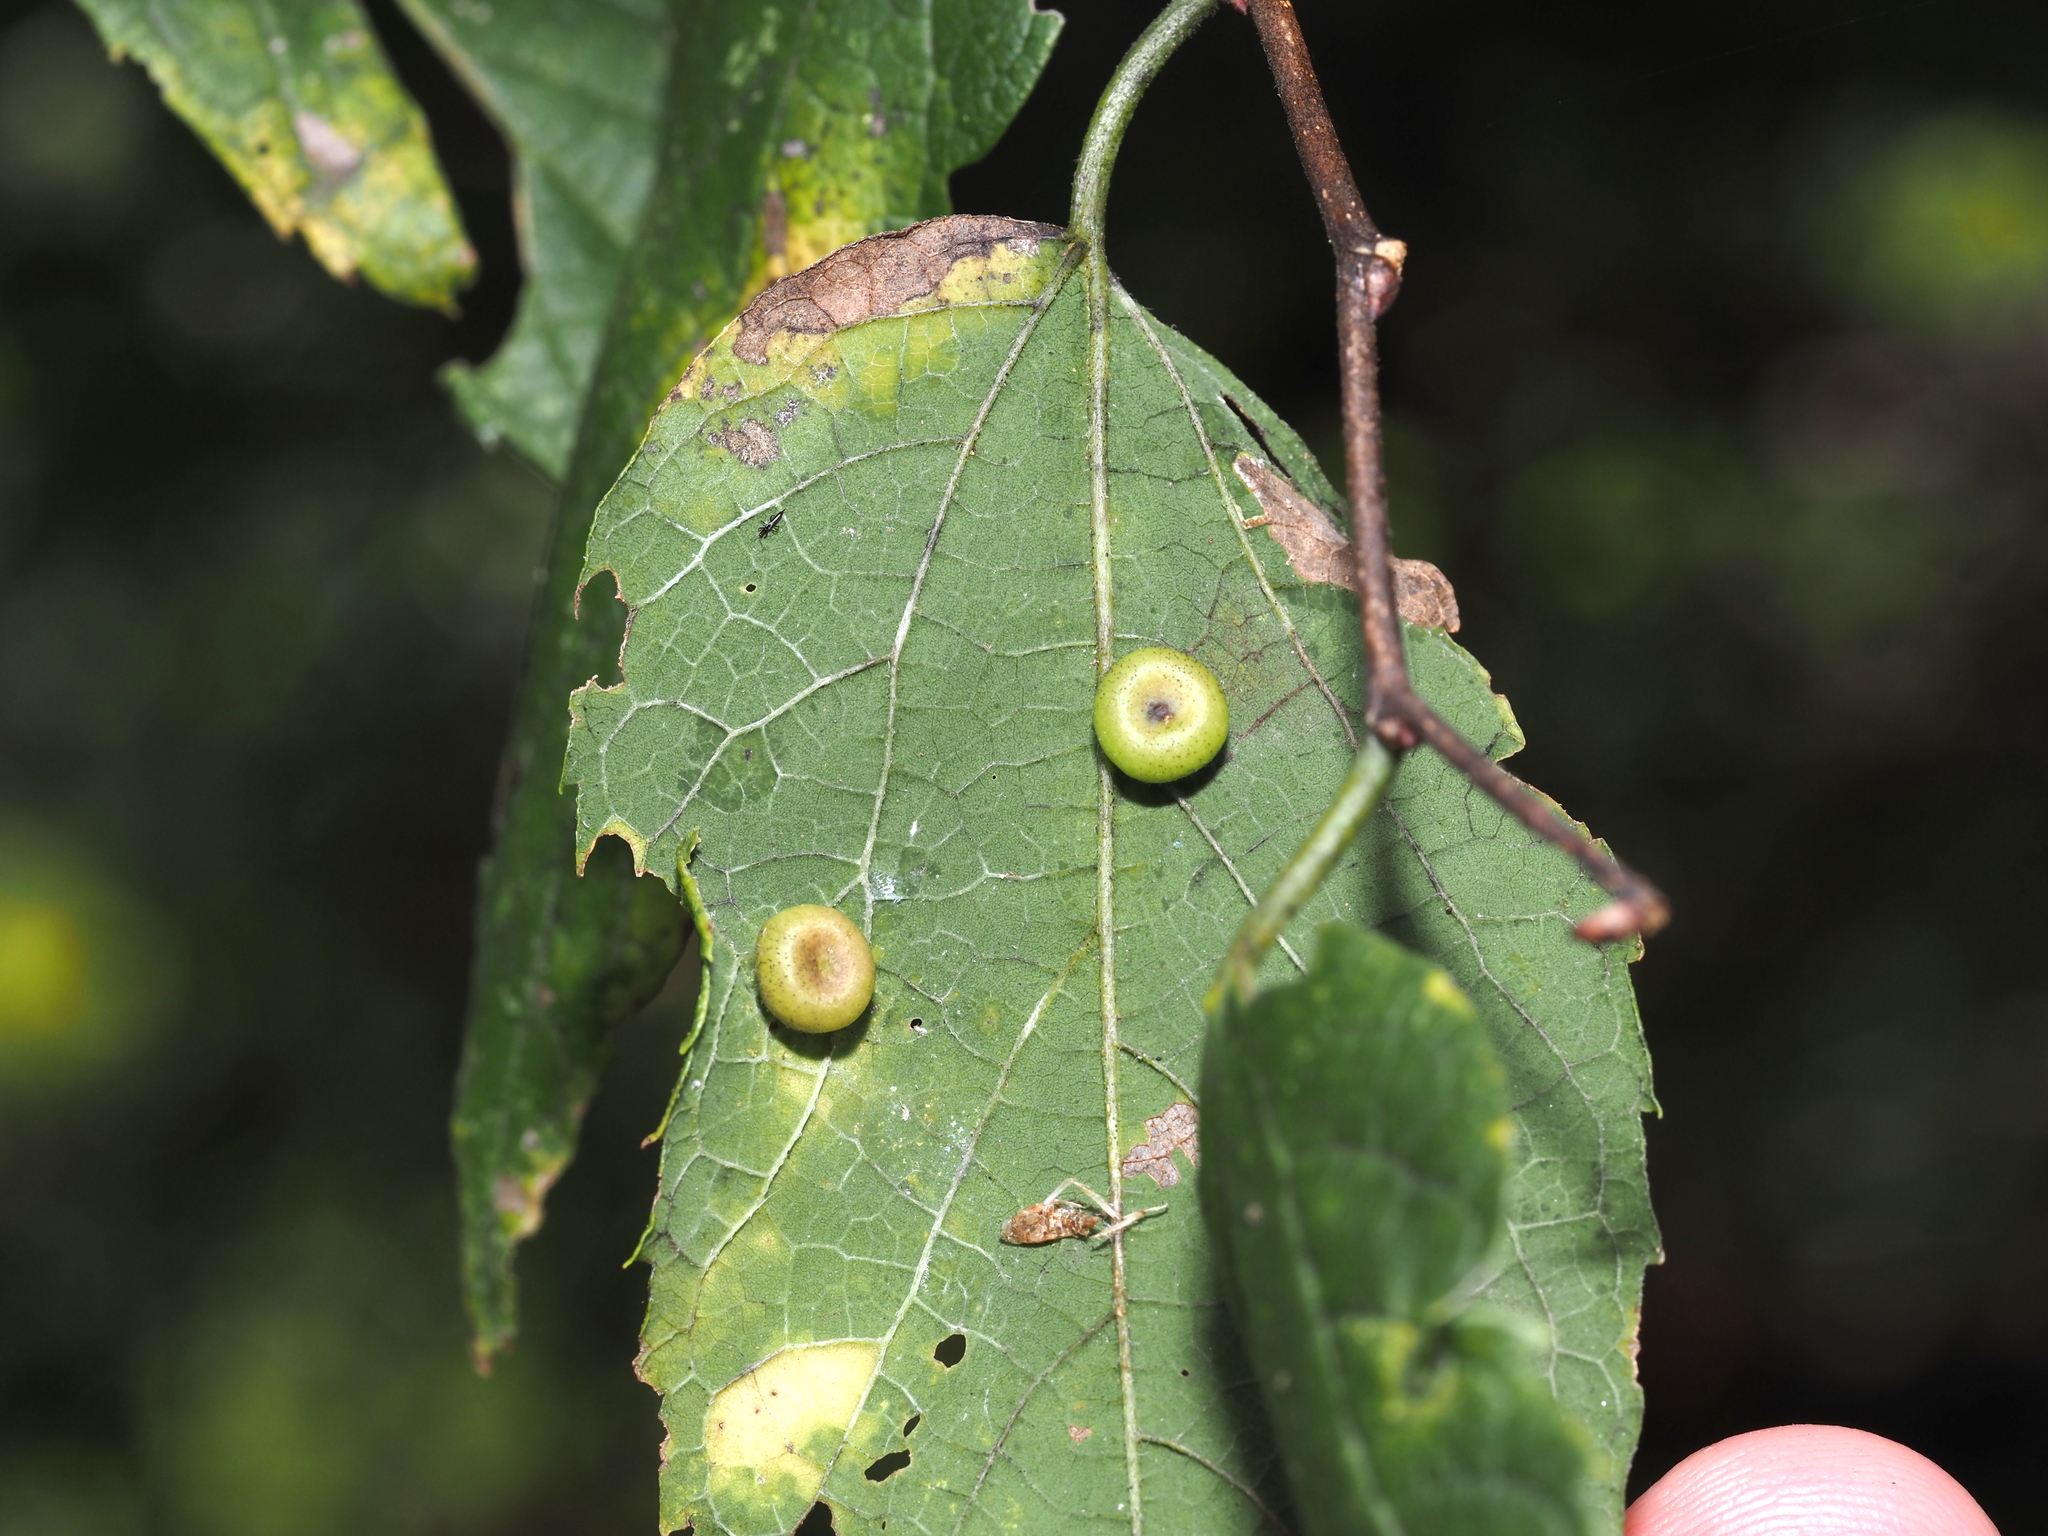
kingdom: Animalia
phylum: Arthropoda
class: Insecta
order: Hemiptera
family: Aphalaridae
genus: Pachypsylla
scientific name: Pachypsylla celtidismamma
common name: Hackberry nipplegall psyllid
